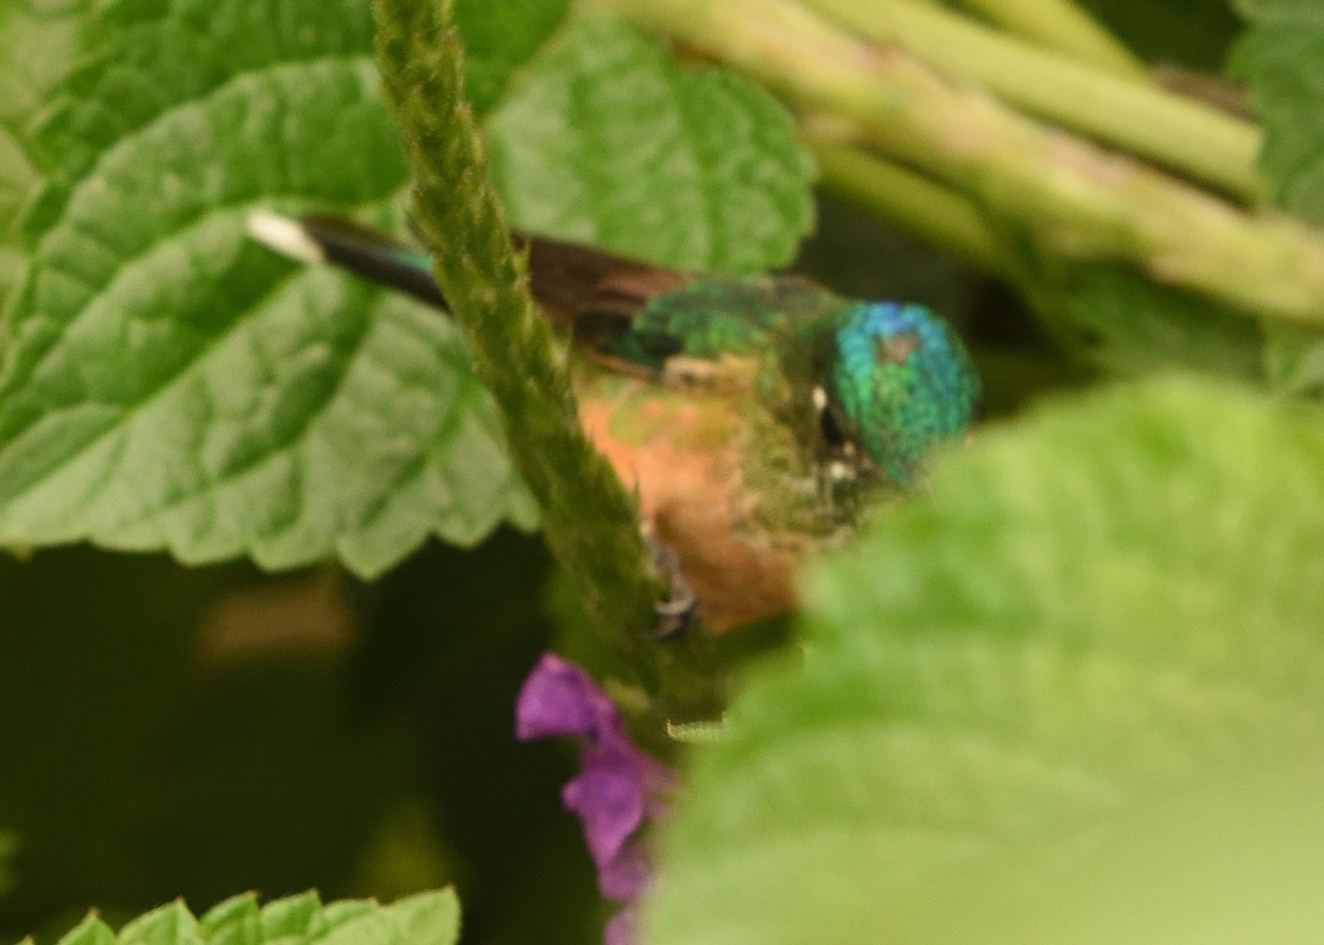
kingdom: Animalia
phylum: Chordata
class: Aves
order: Apodiformes
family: Trochilidae
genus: Aglaiocercus
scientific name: Aglaiocercus kingii
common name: Long-tailed sylph
